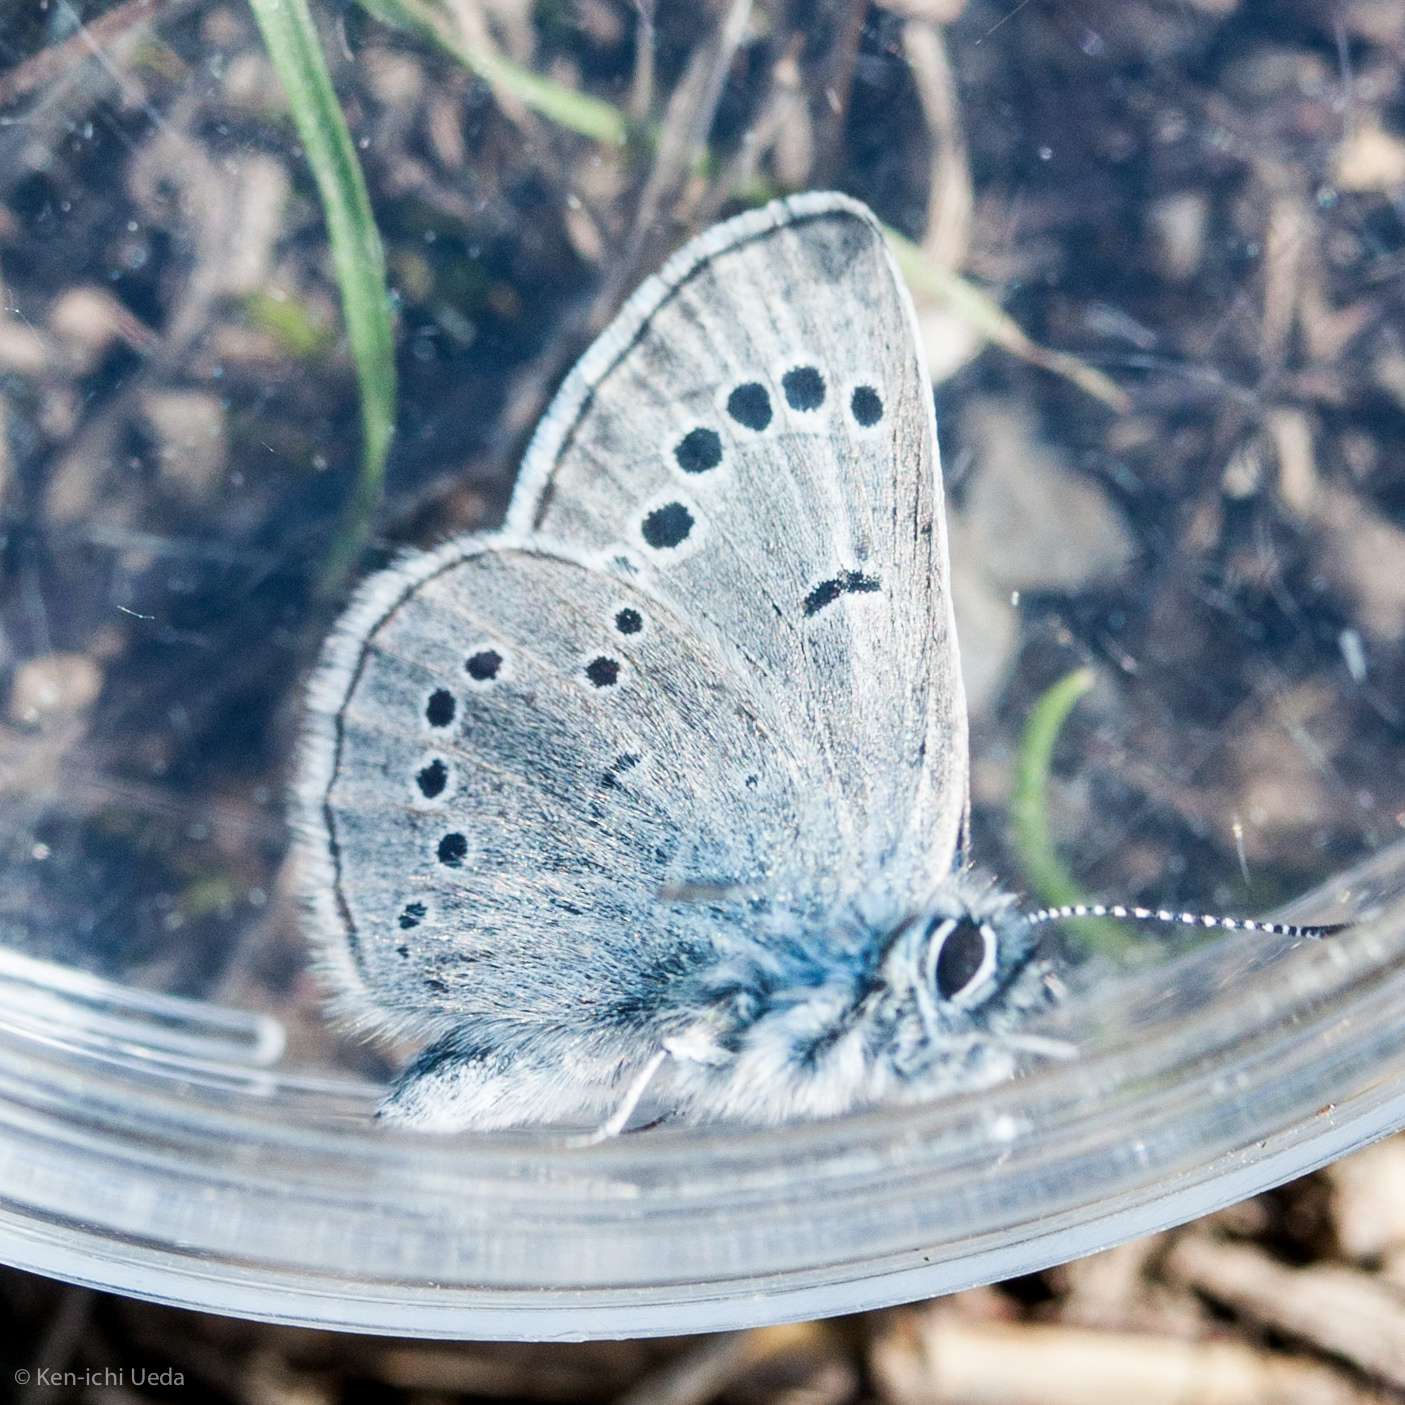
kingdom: Animalia
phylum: Arthropoda
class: Insecta
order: Lepidoptera
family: Lycaenidae
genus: Glaucopsyche
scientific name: Glaucopsyche lygdamus
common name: Silvery blue
